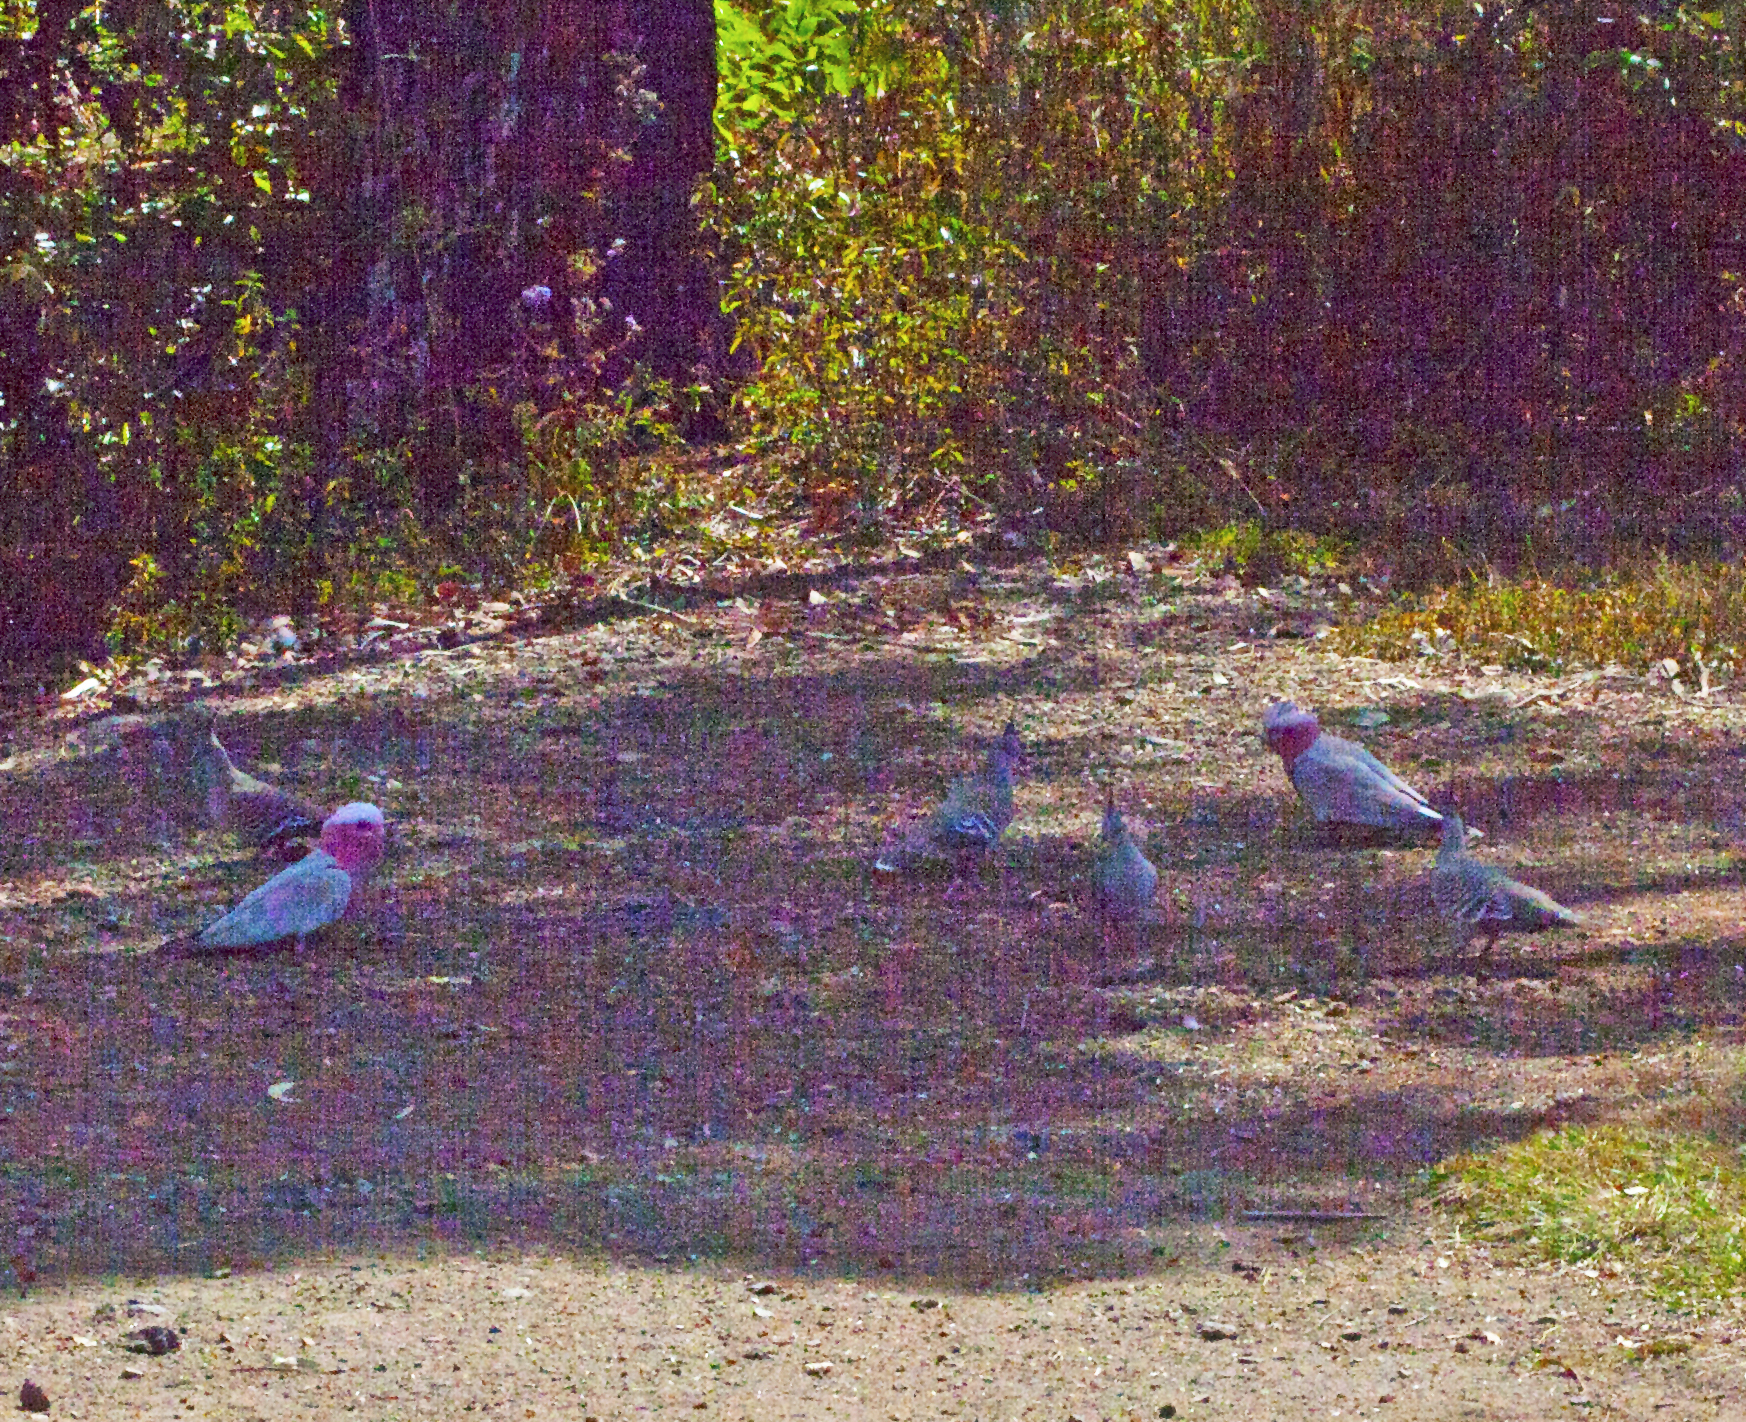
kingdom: Animalia
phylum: Chordata
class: Aves
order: Psittaciformes
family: Psittacidae
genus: Eolophus
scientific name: Eolophus roseicapilla
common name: Galah
